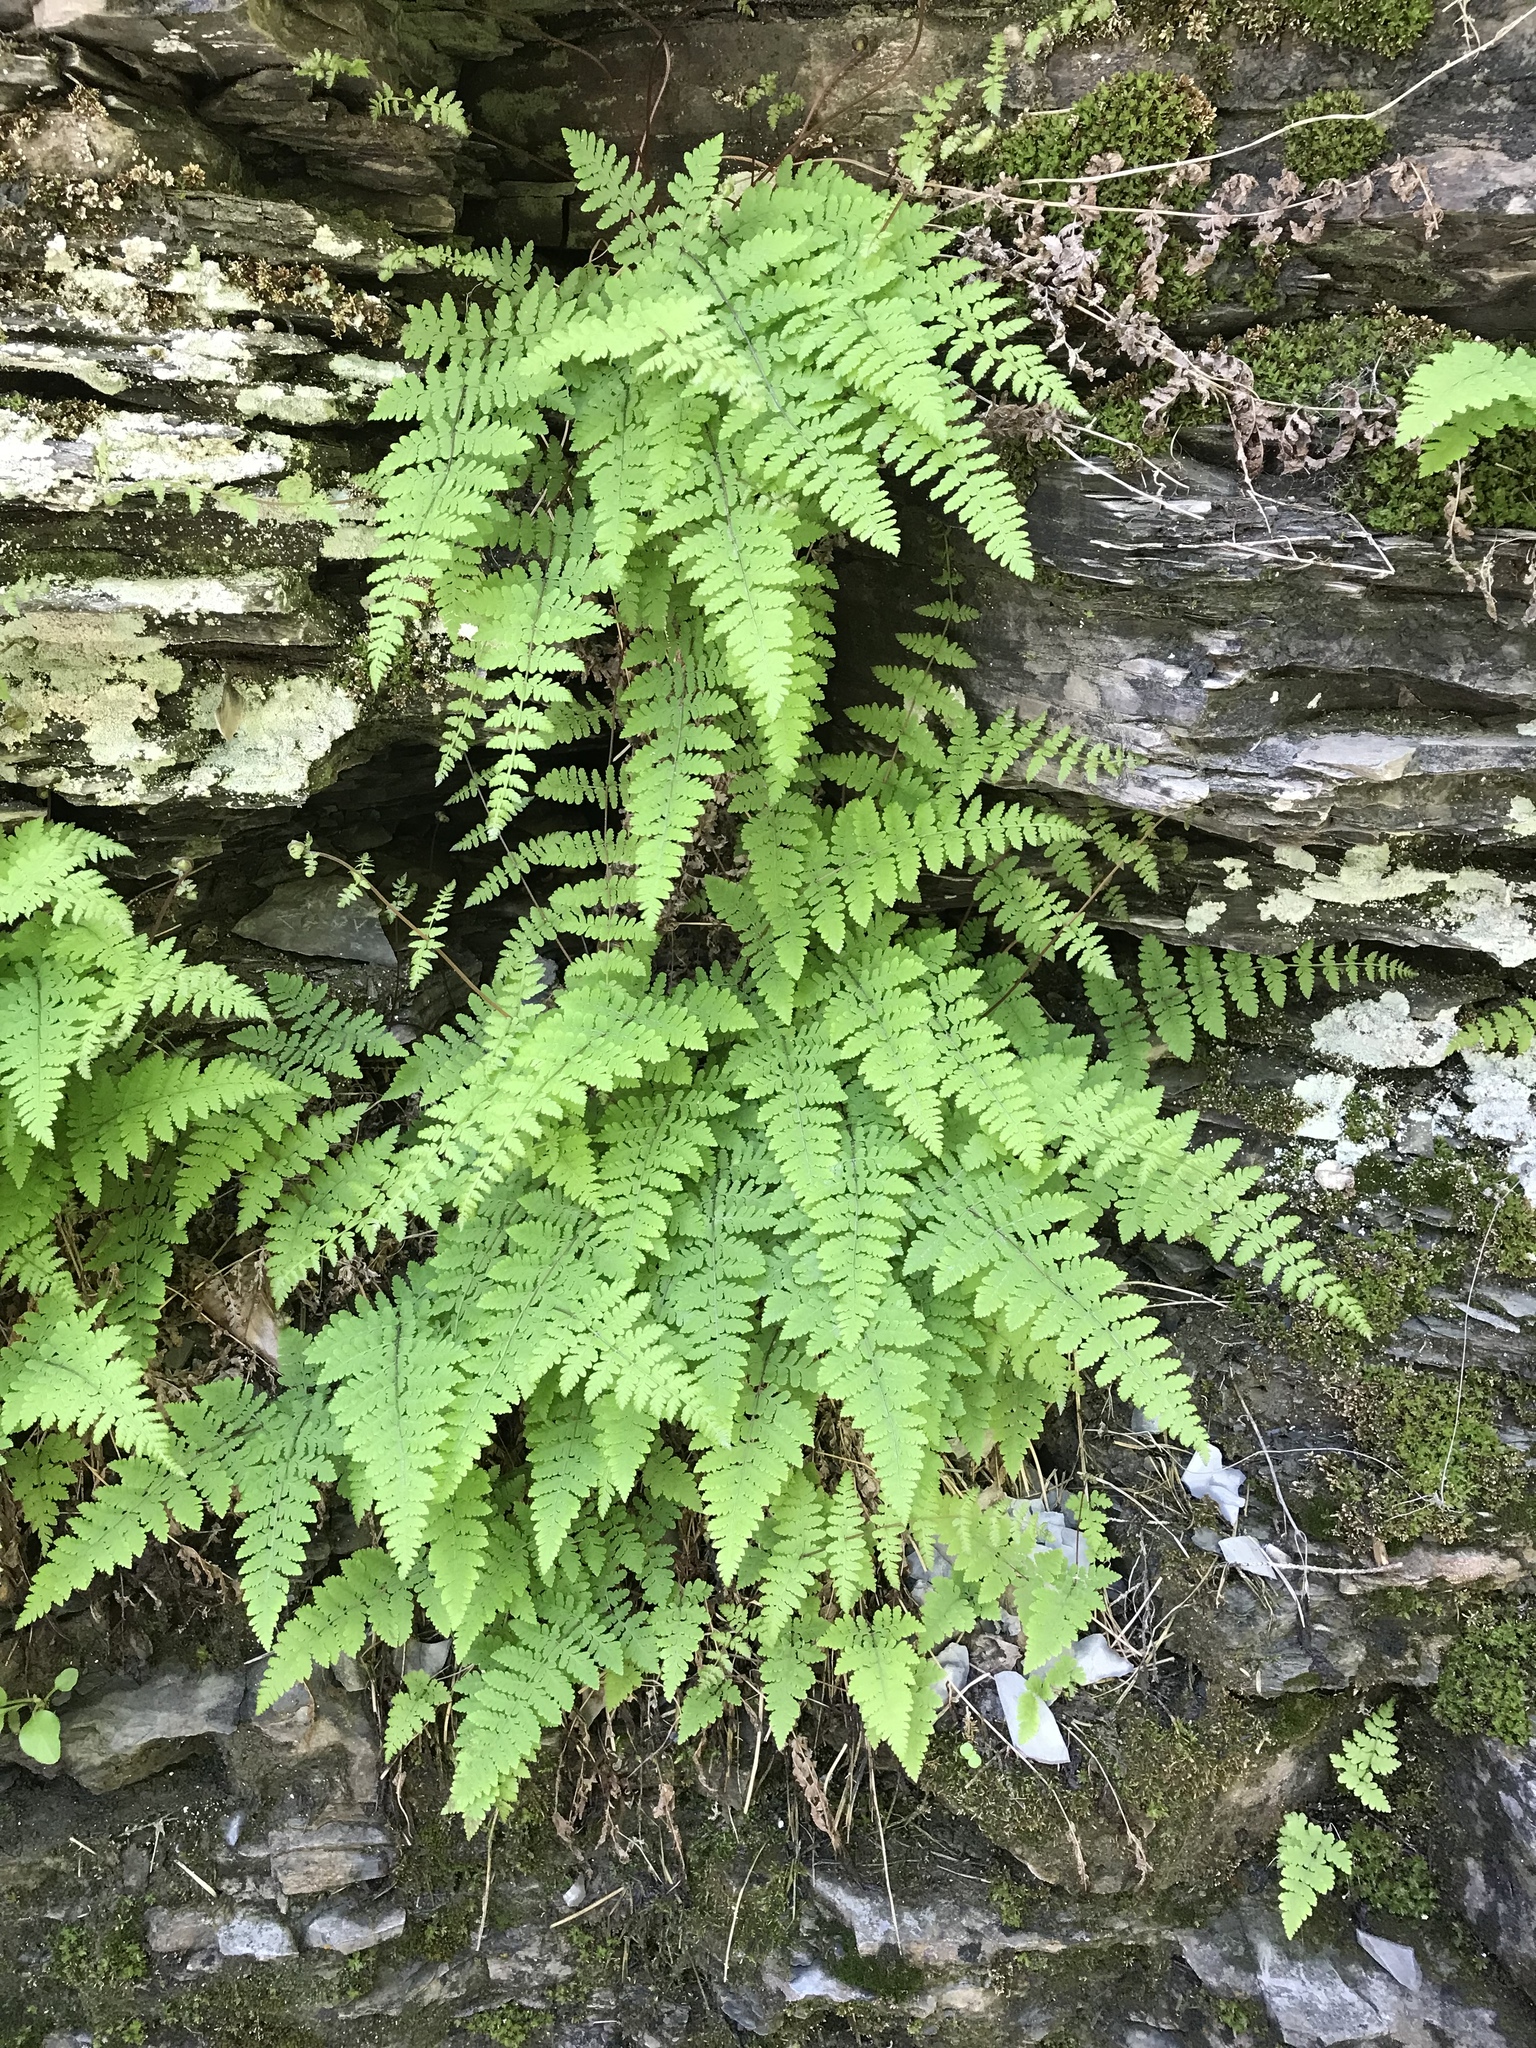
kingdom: Plantae
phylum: Tracheophyta
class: Polypodiopsida
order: Polypodiales
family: Cystopteridaceae
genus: Cystopteris
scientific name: Cystopteris bulbifera
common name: Bulblet bladder fern
